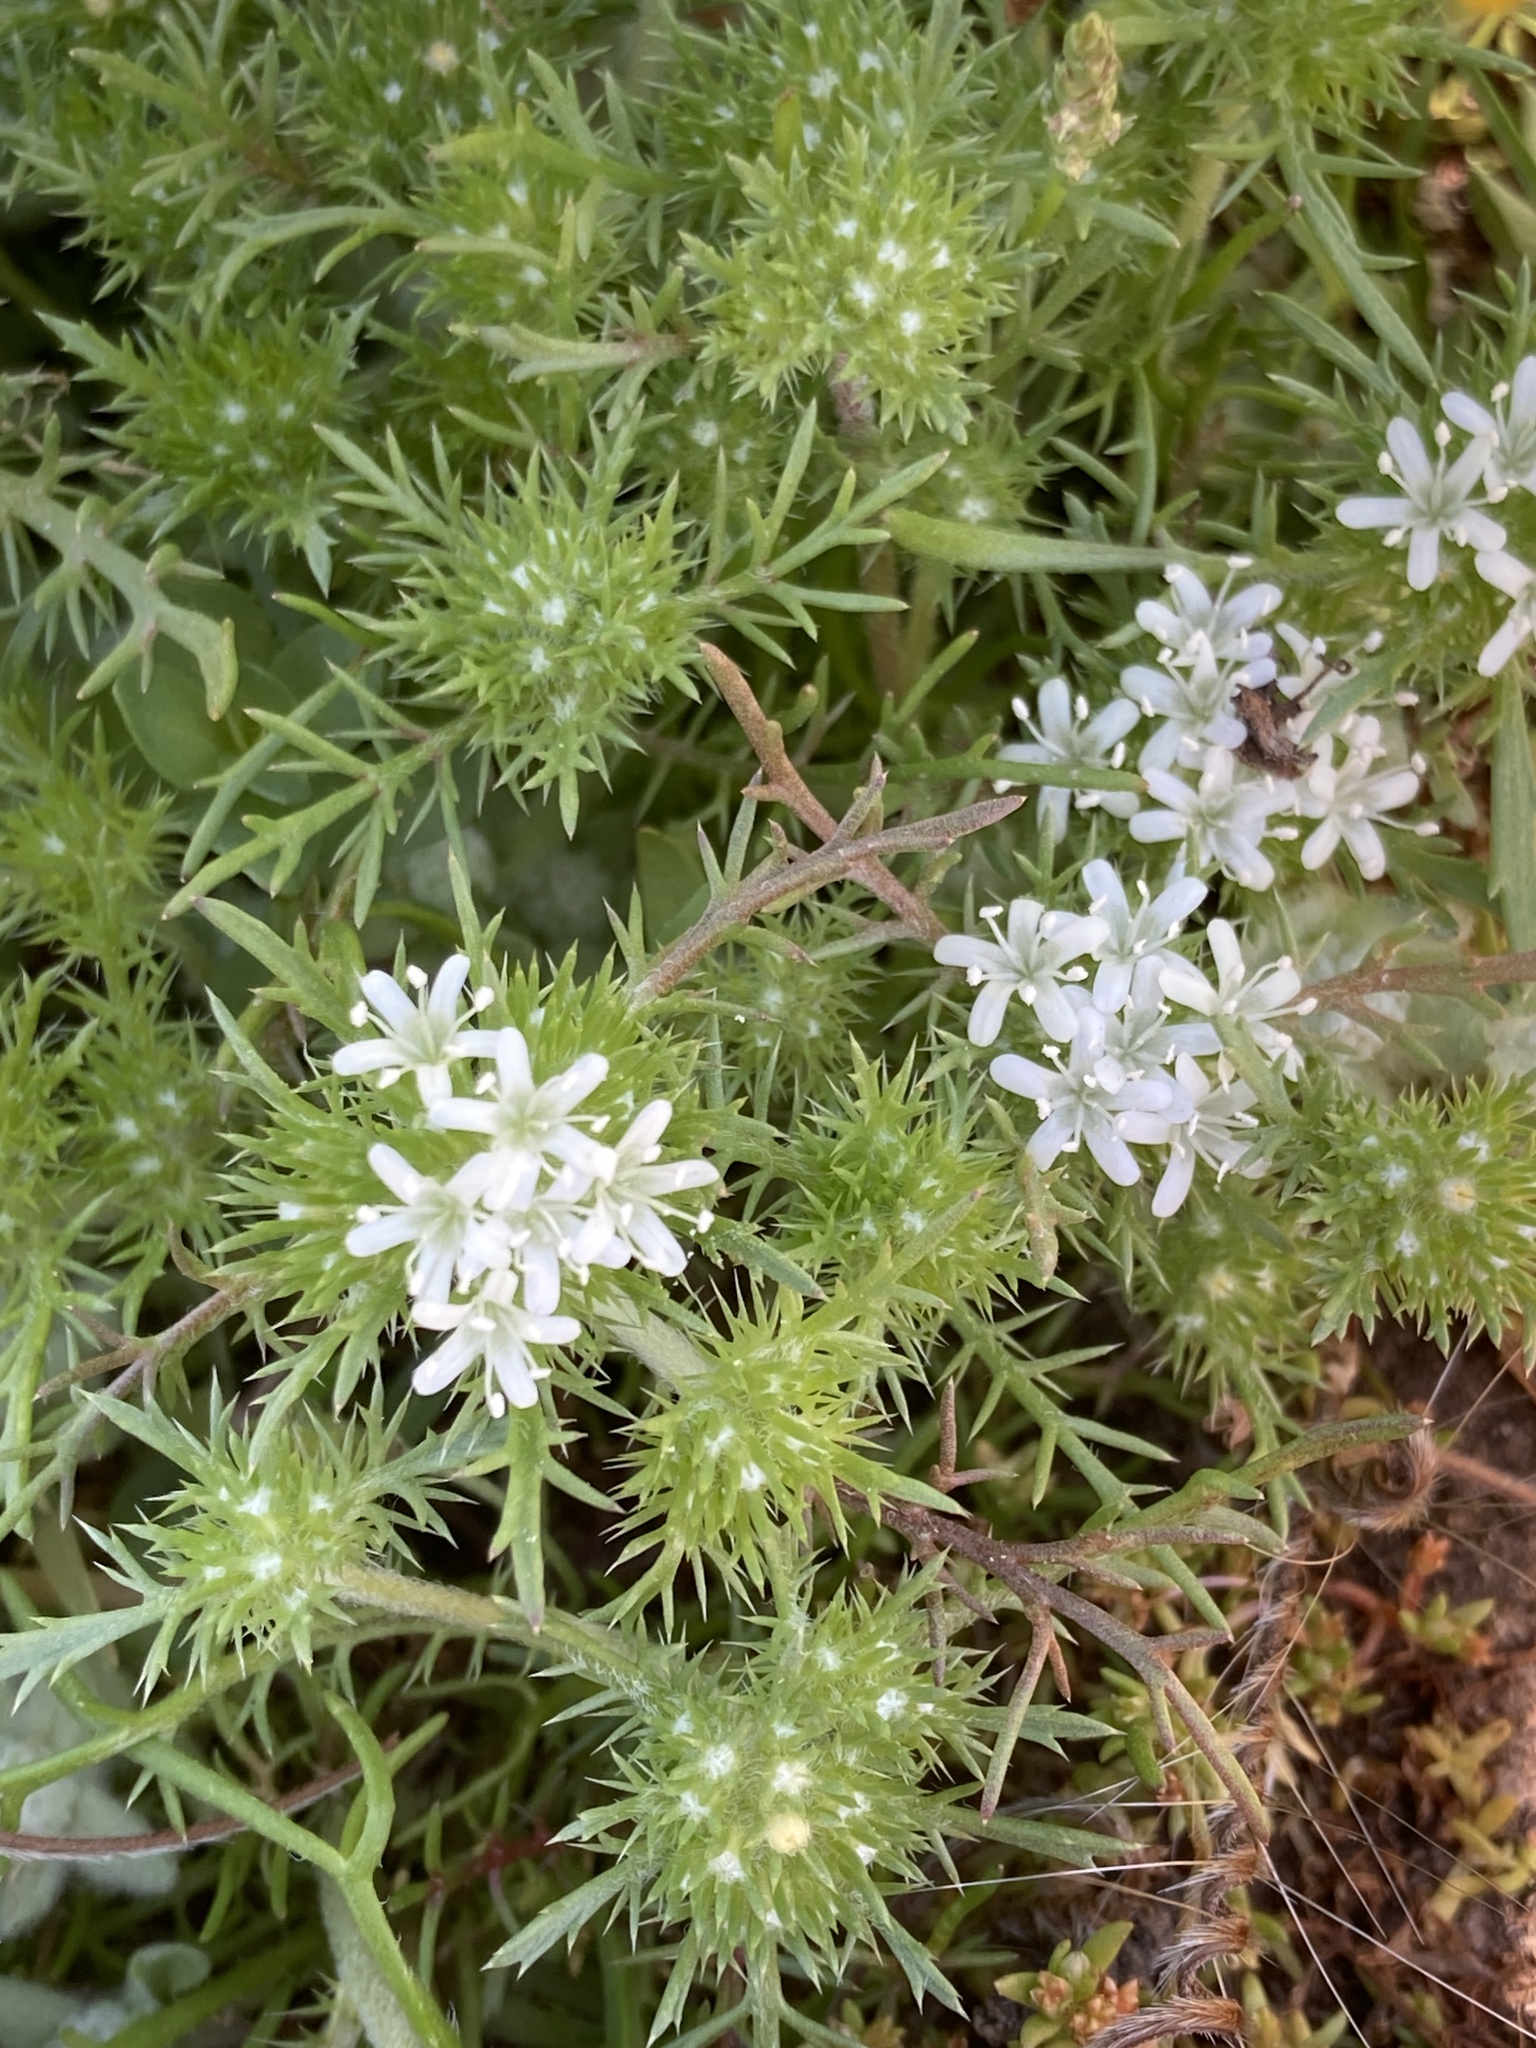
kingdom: Plantae
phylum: Tracheophyta
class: Magnoliopsida
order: Ericales
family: Polemoniaceae
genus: Navarretia
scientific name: Navarretia leucocephala
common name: White-flowered navarretia
